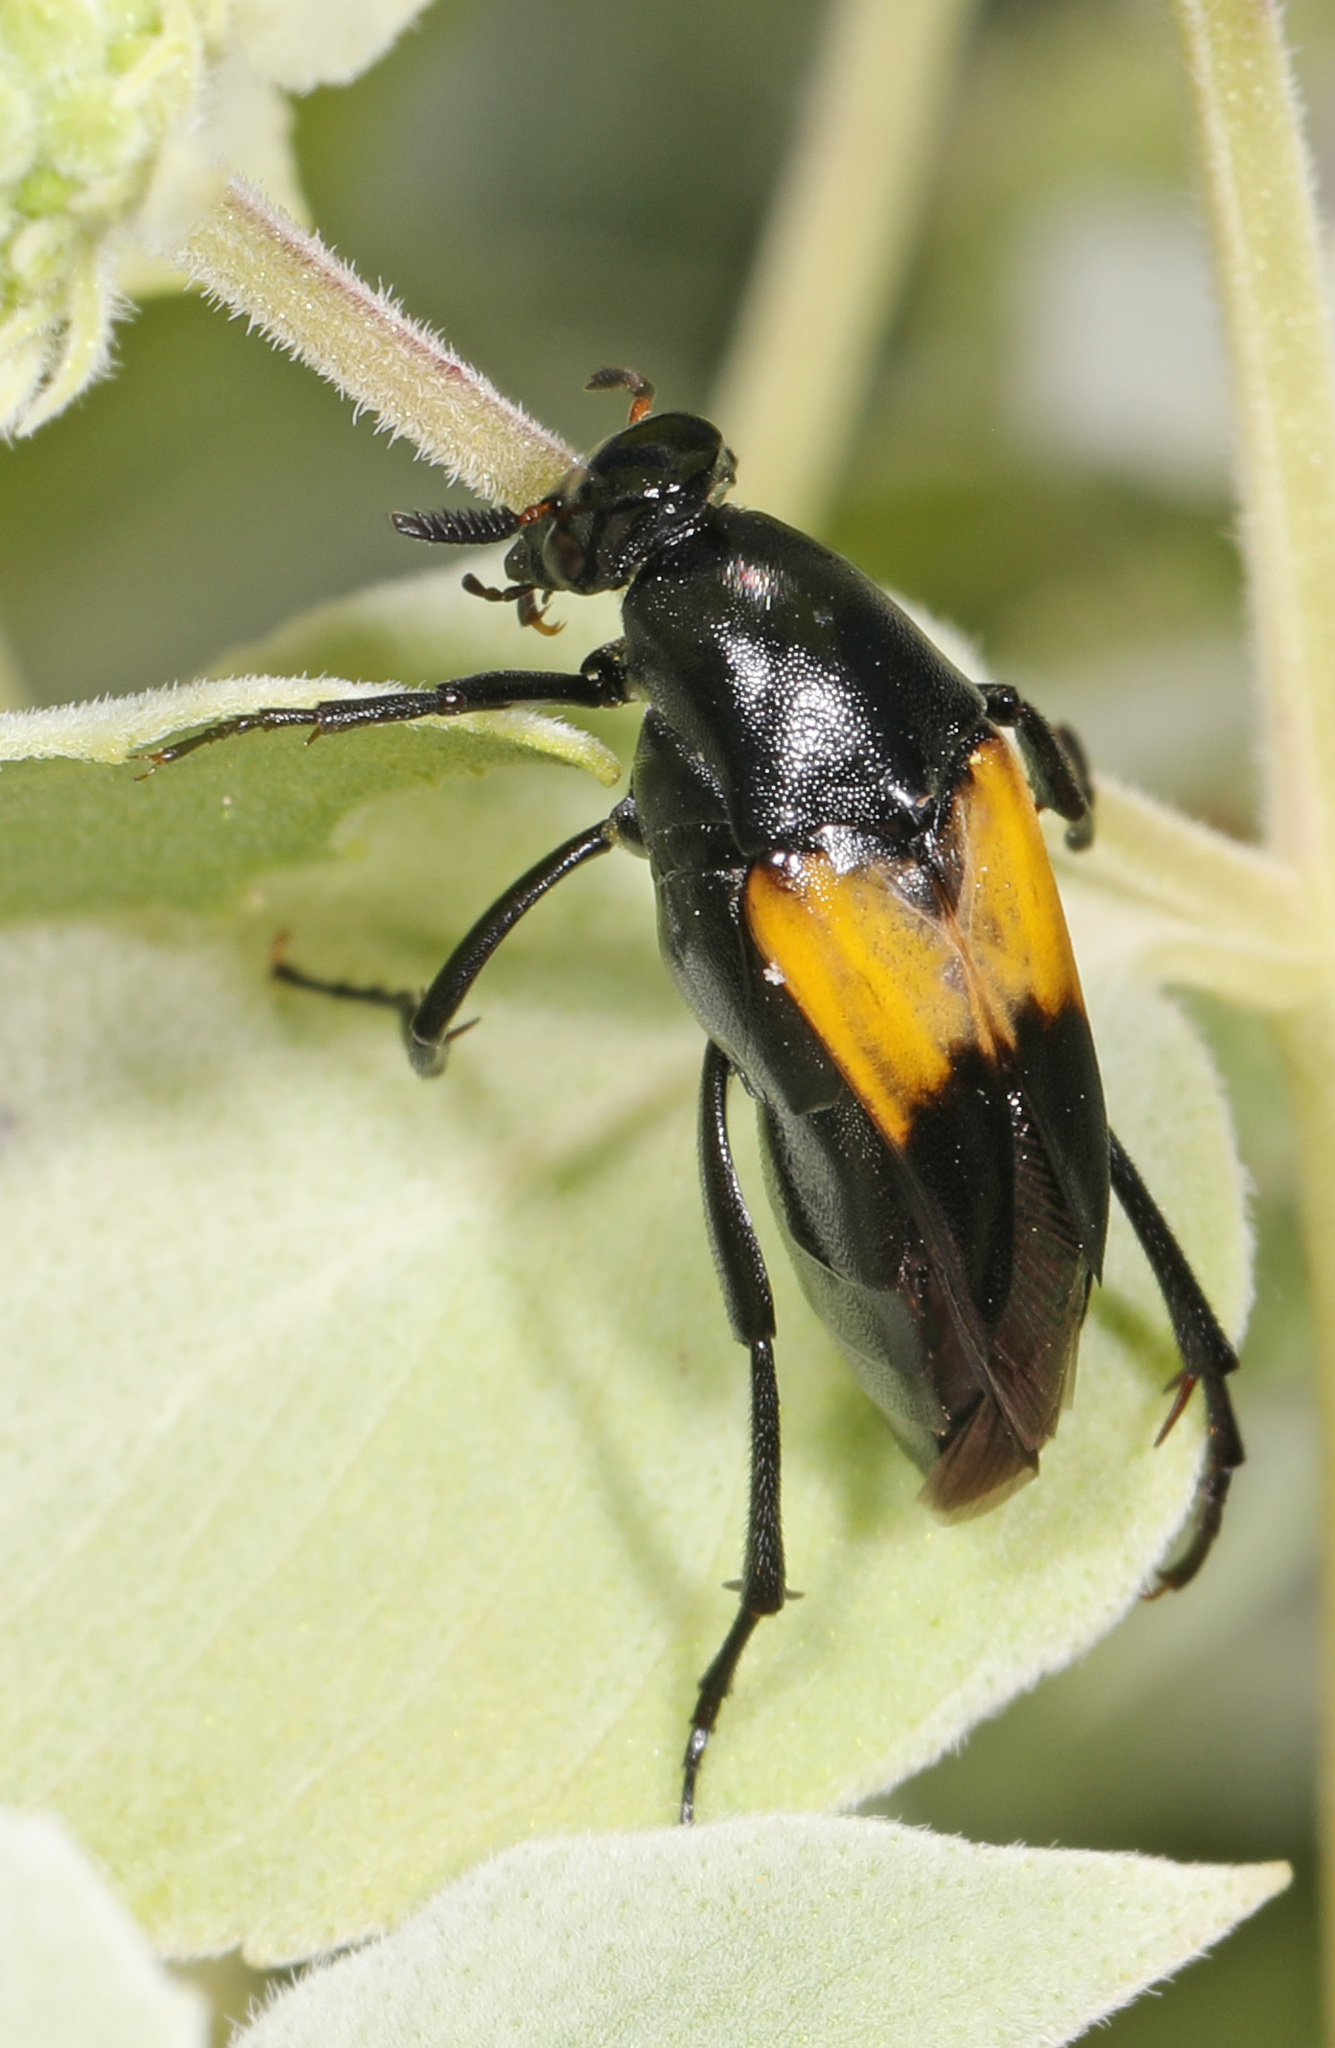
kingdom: Animalia
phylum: Arthropoda
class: Insecta
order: Coleoptera
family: Ripiphoridae
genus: Macrosiagon
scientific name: Macrosiagon dimidiata
